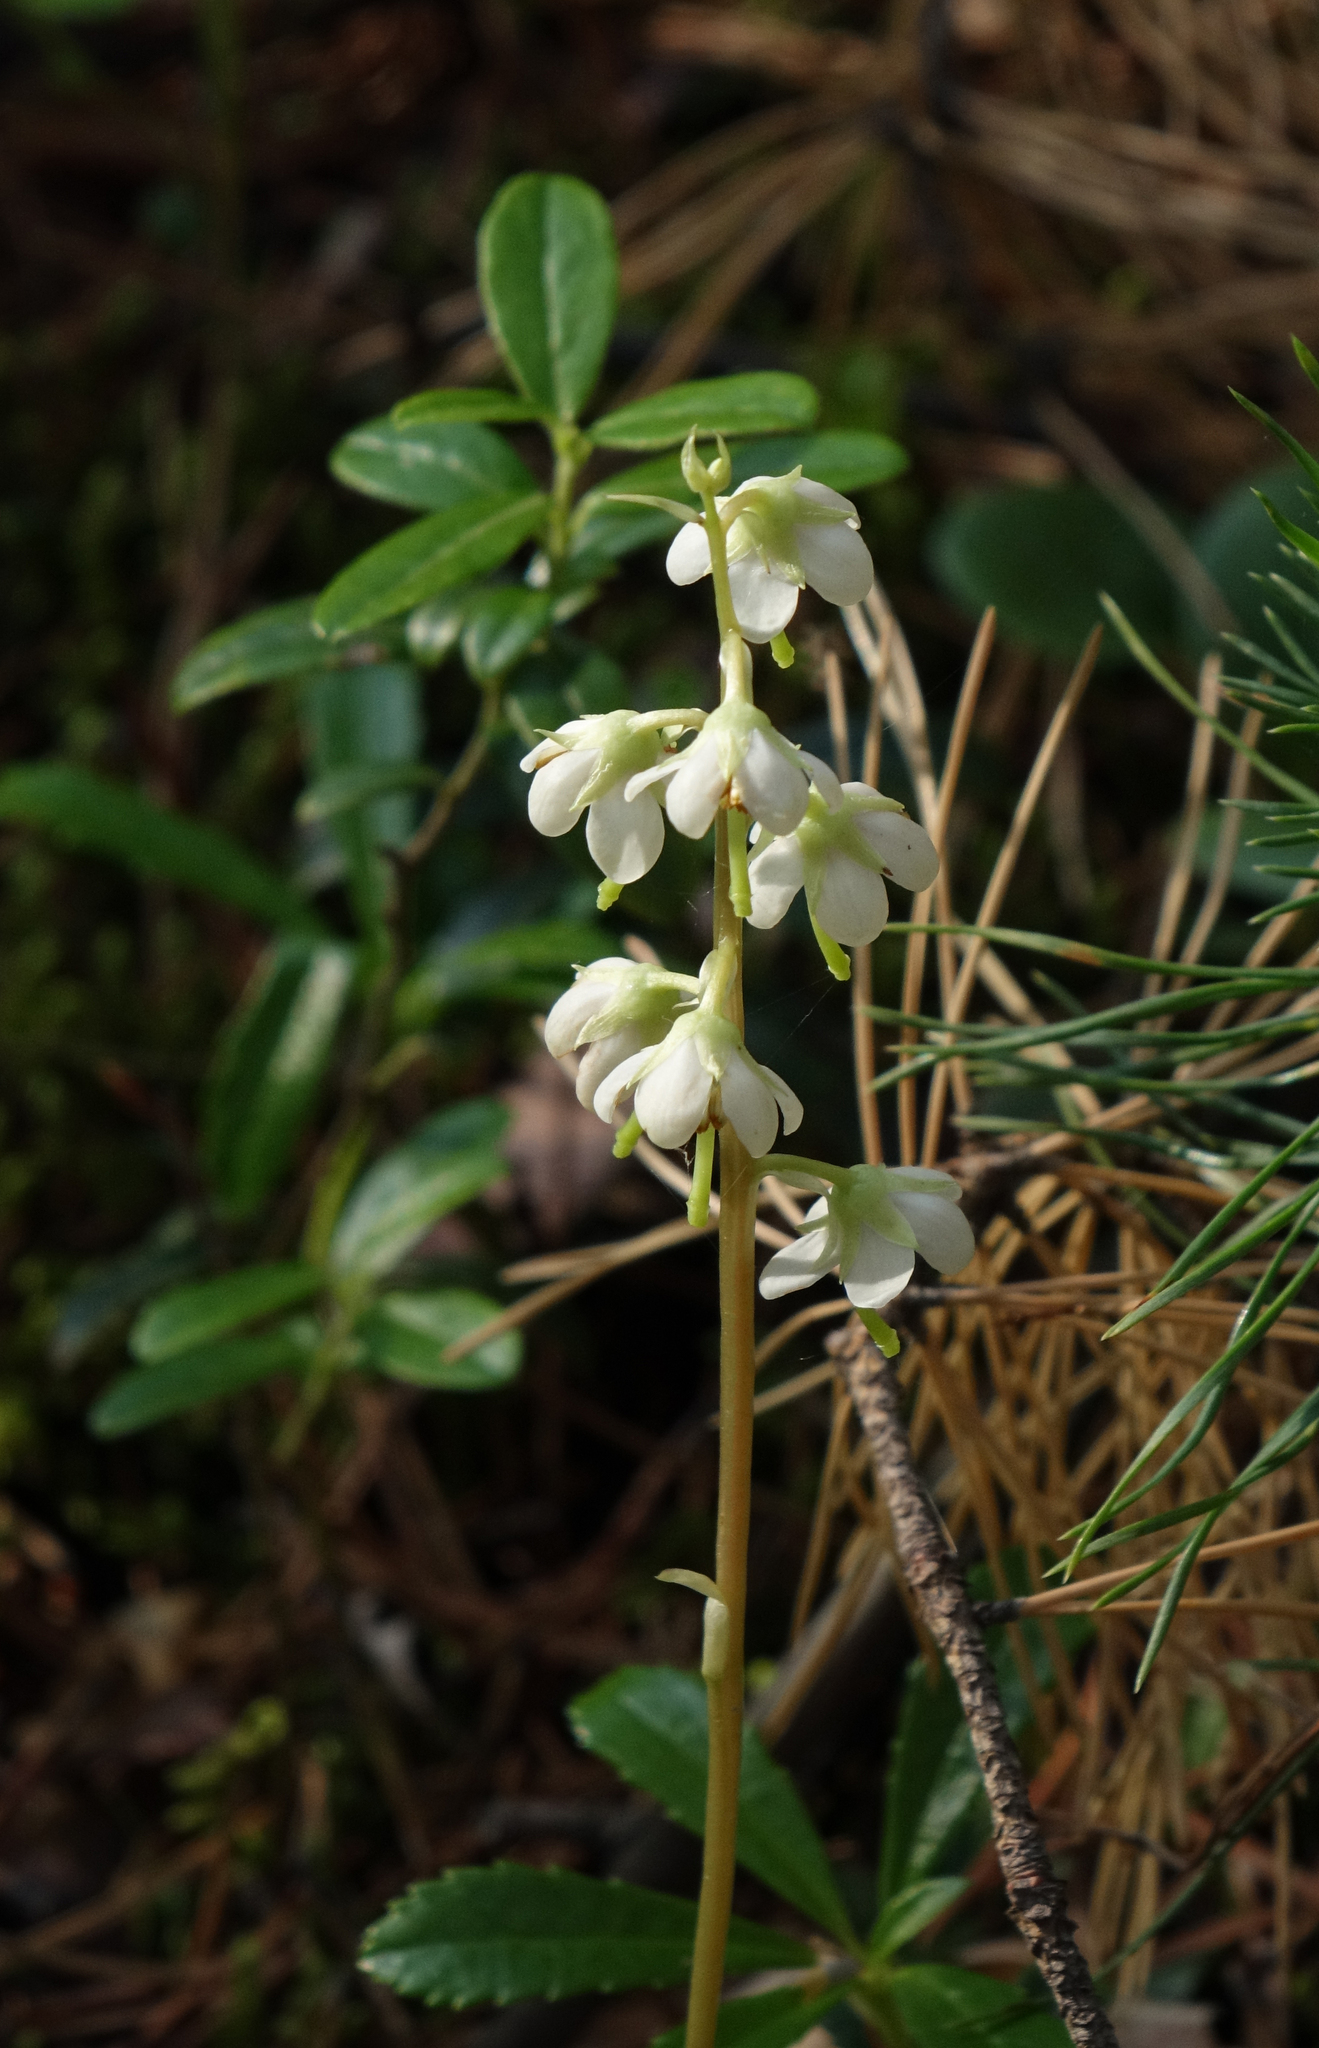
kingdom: Plantae
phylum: Tracheophyta
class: Magnoliopsida
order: Ericales
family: Ericaceae
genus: Pyrola
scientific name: Pyrola rotundifolia
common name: Round-leaved wintergreen
